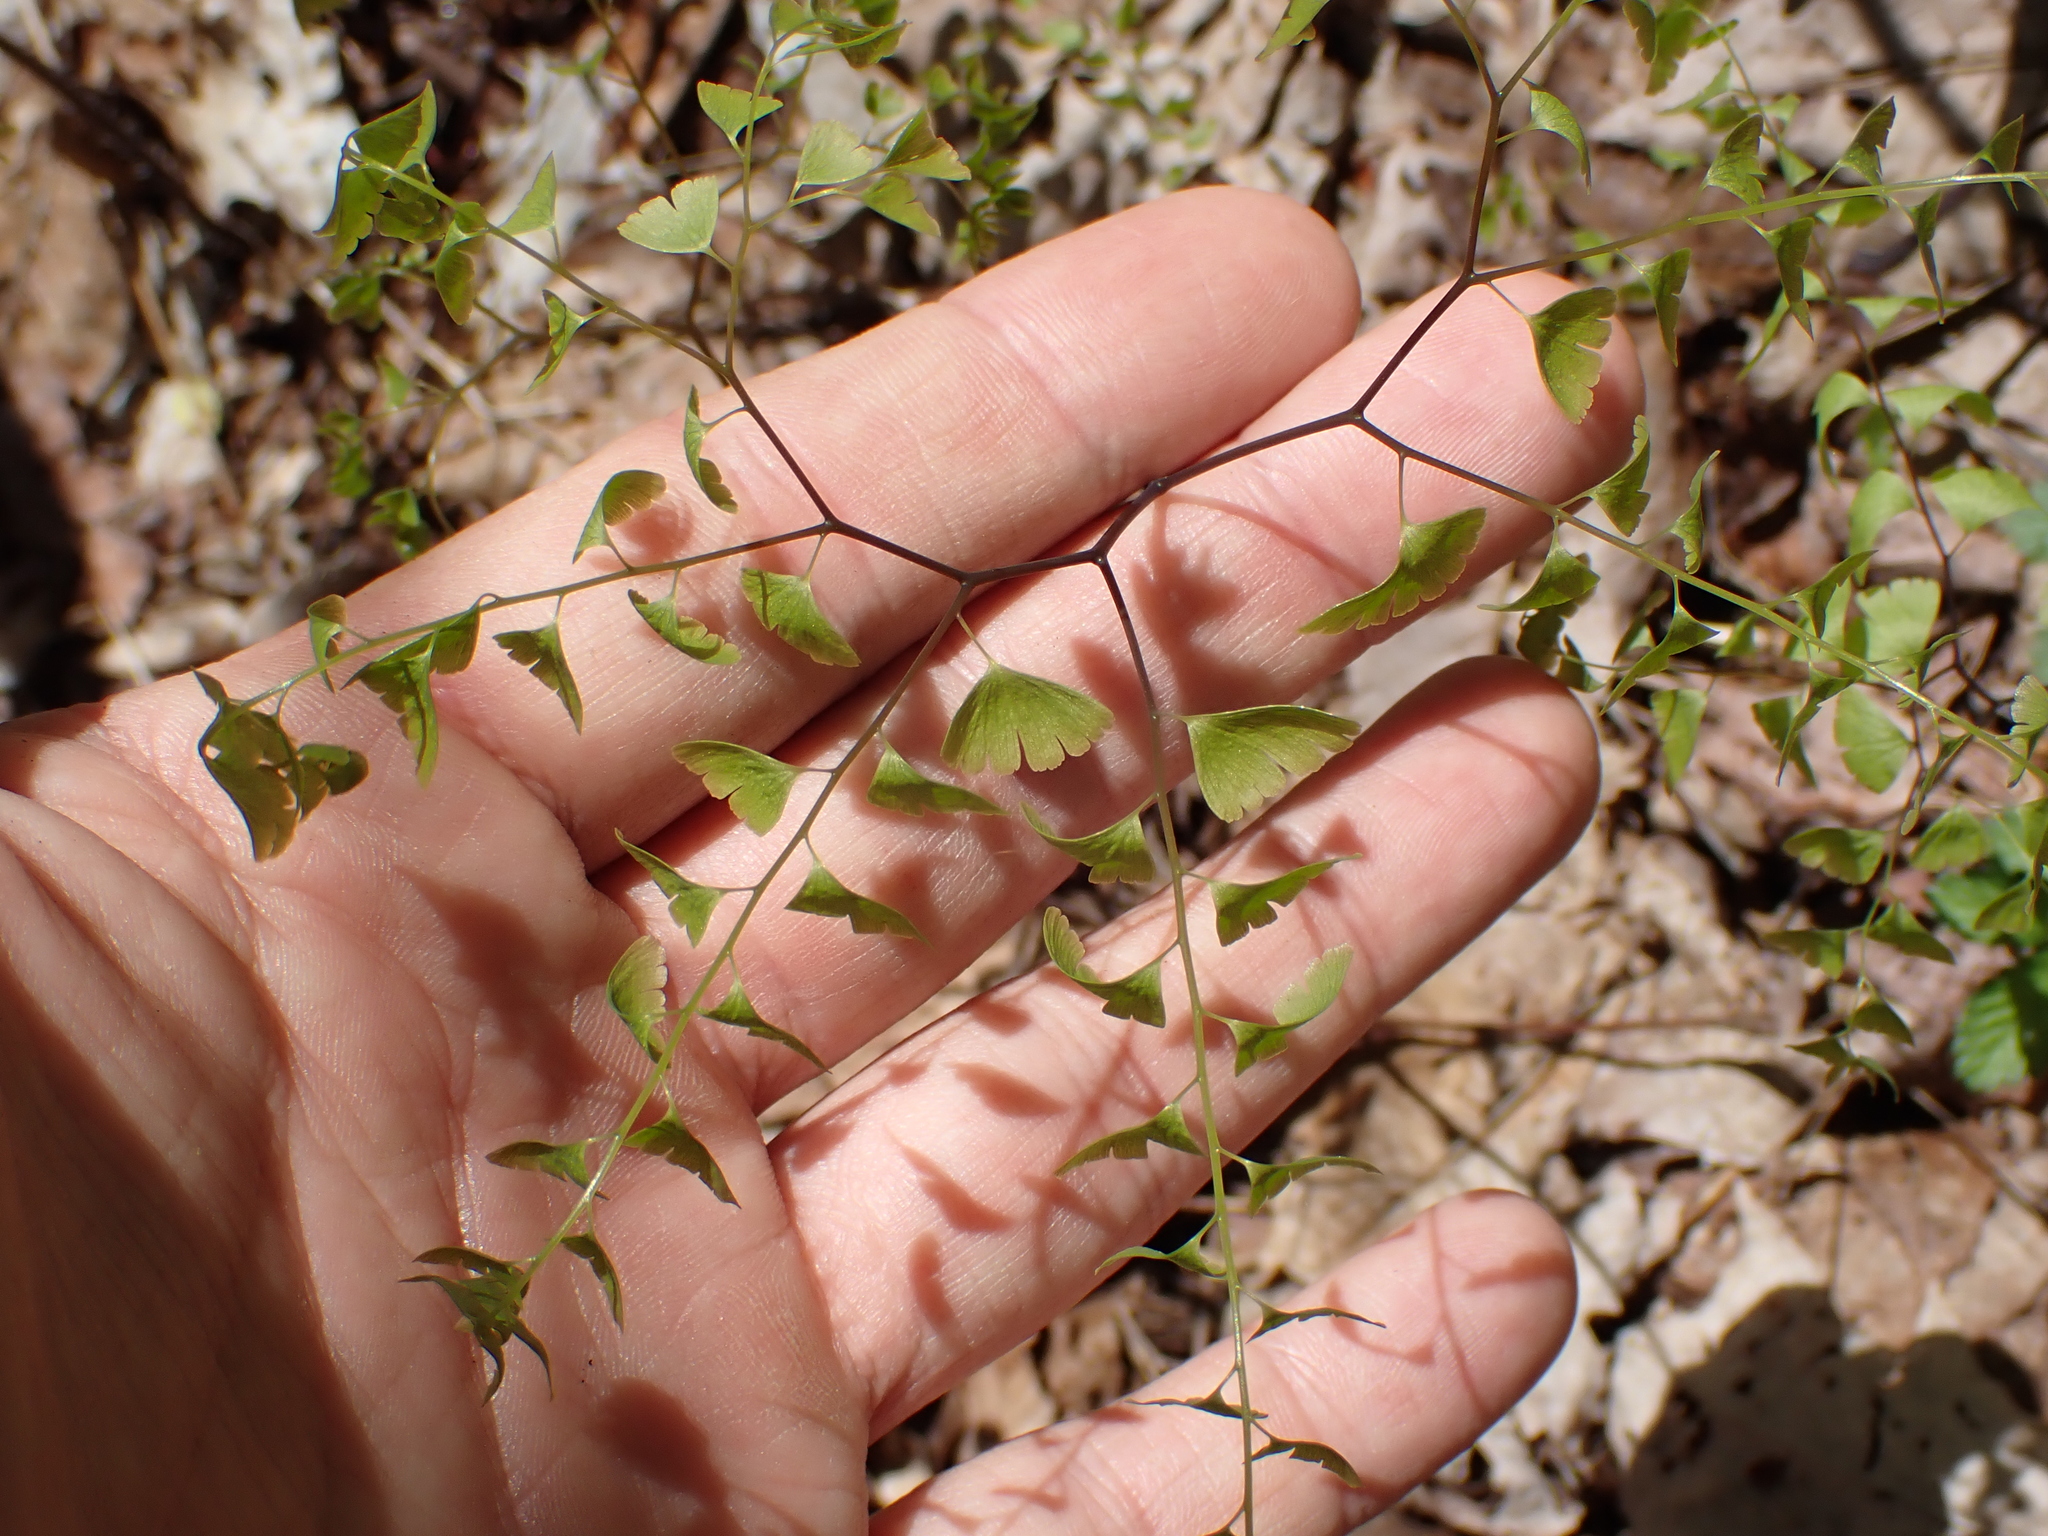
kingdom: Plantae
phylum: Tracheophyta
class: Polypodiopsida
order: Polypodiales
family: Pteridaceae
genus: Adiantum
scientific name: Adiantum pedatum
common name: Five-finger fern
